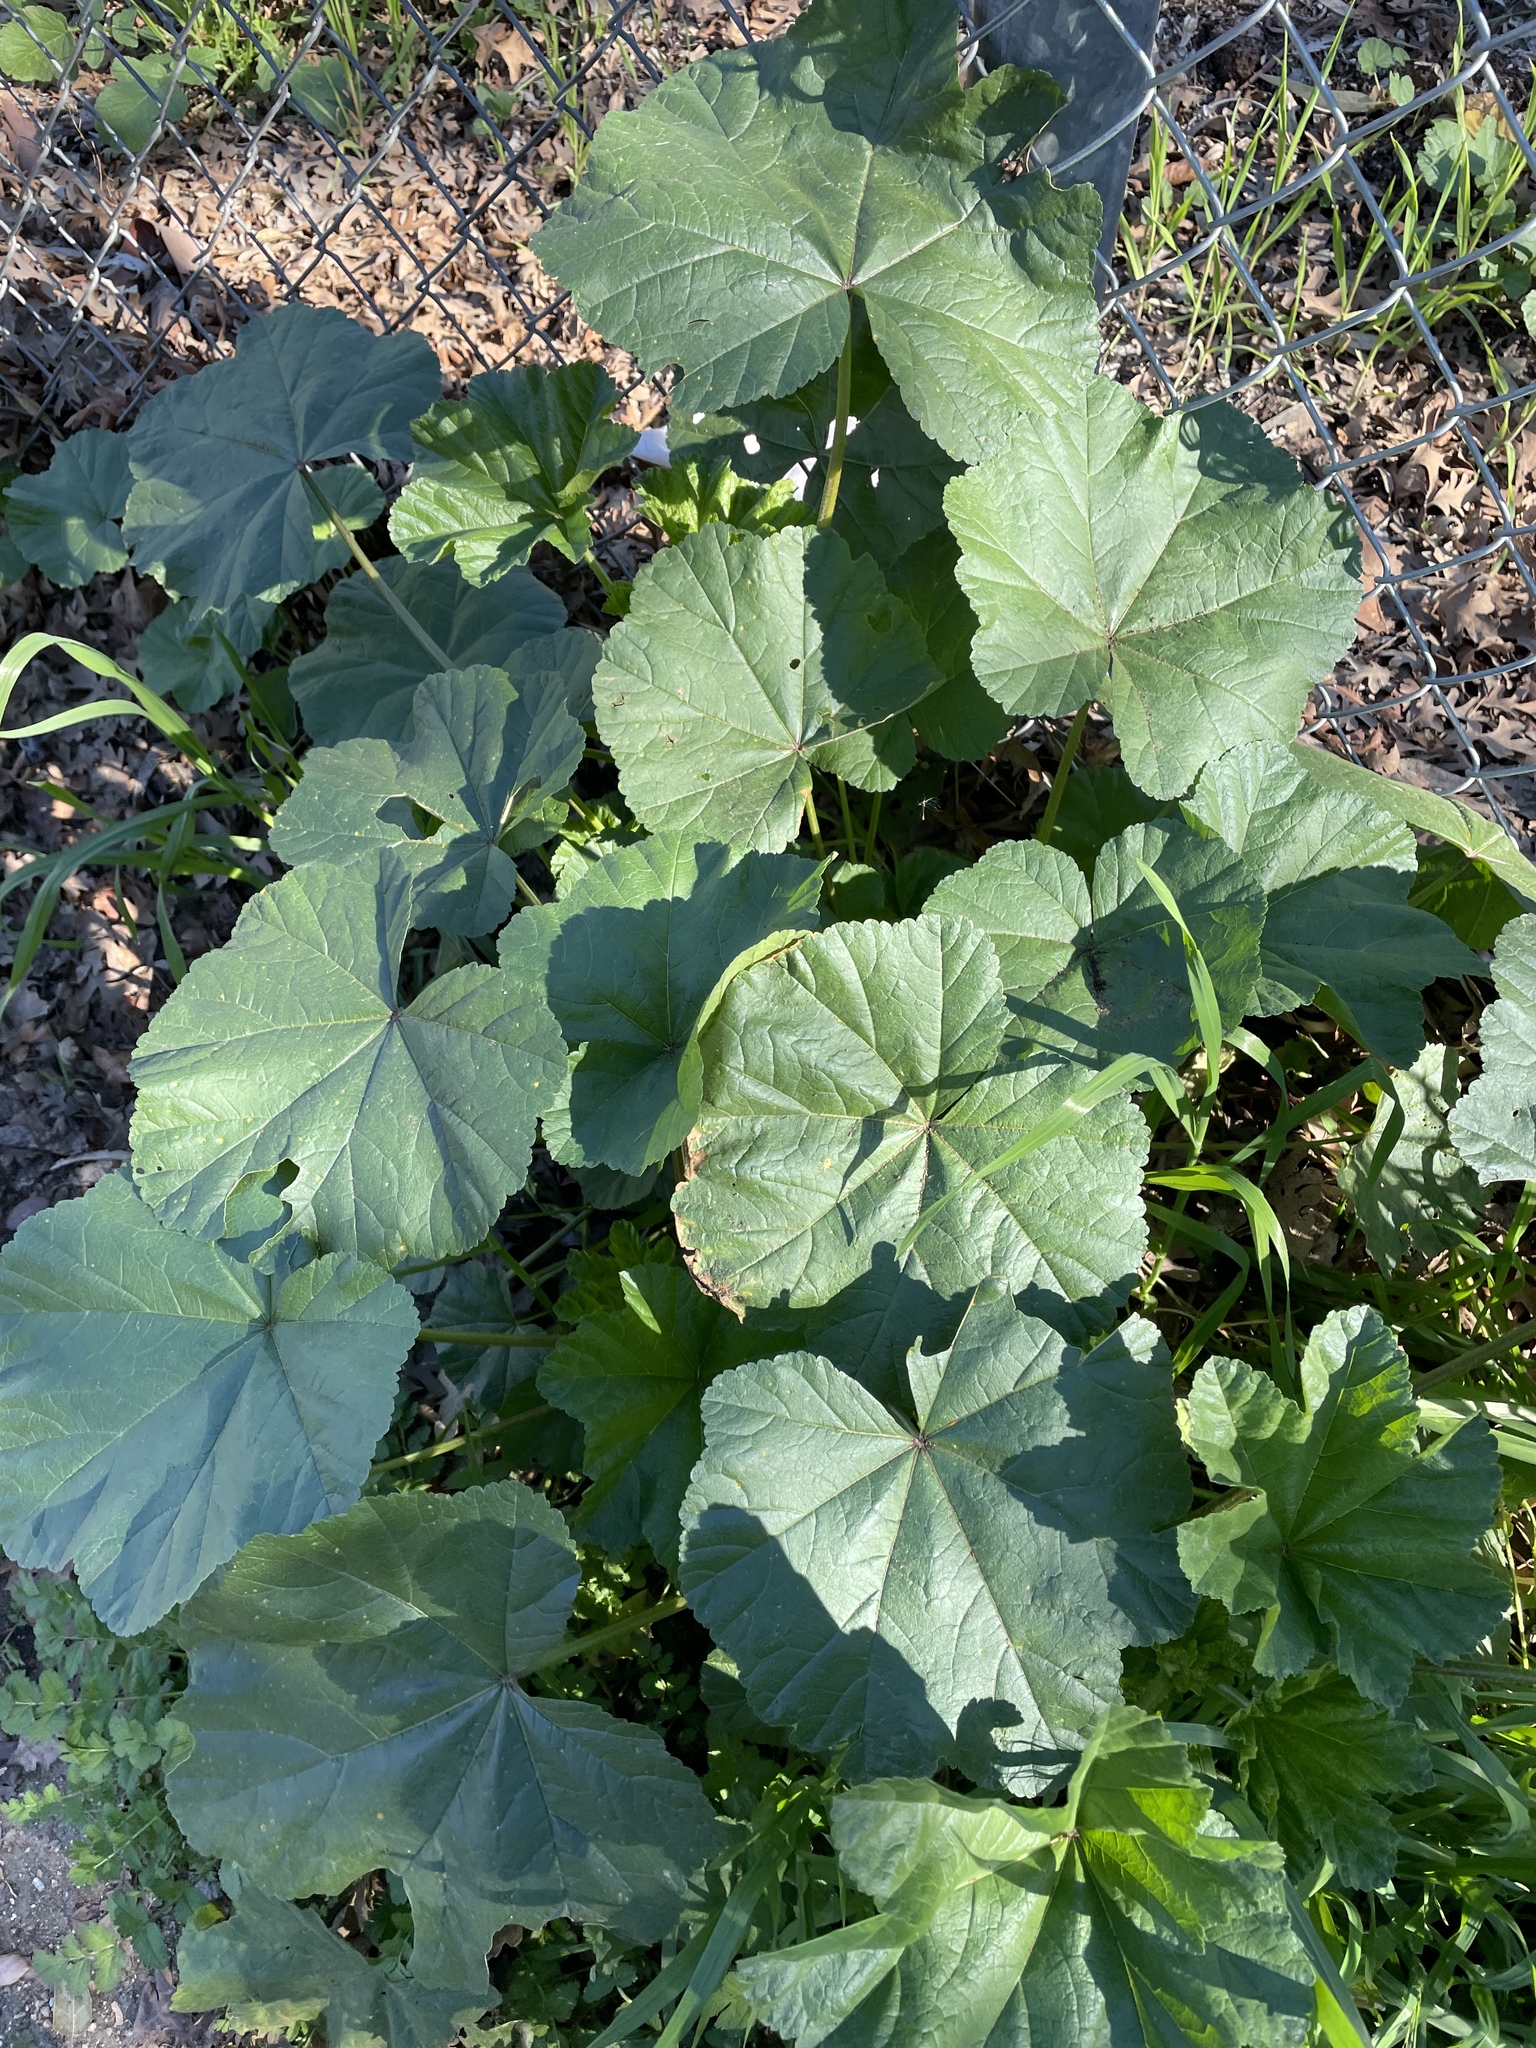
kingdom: Plantae
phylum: Tracheophyta
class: Magnoliopsida
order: Malvales
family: Malvaceae
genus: Malva
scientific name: Malva
